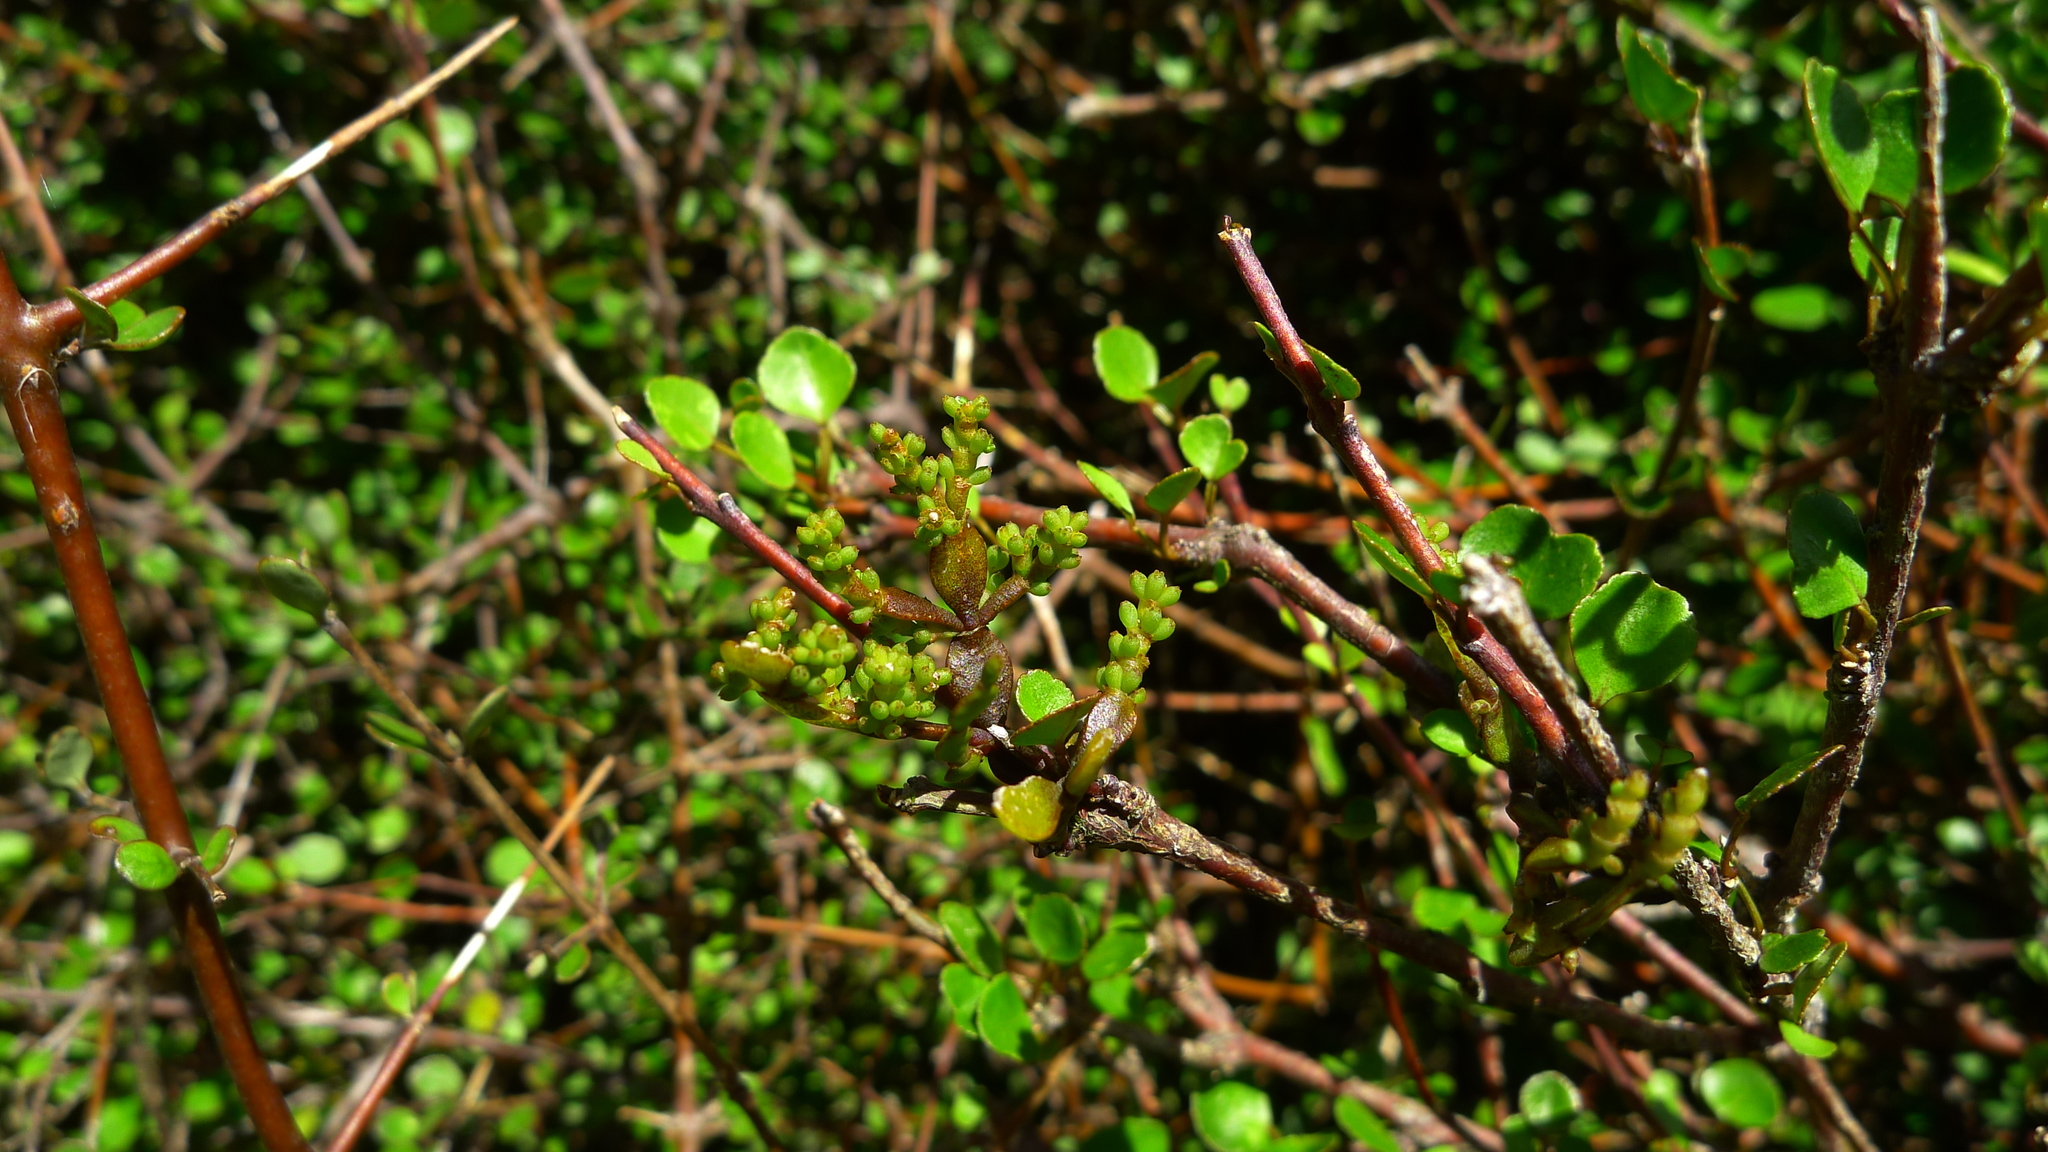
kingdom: Plantae
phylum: Tracheophyta
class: Magnoliopsida
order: Santalales
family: Viscaceae
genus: Korthalsella
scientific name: Korthalsella lindsayi
